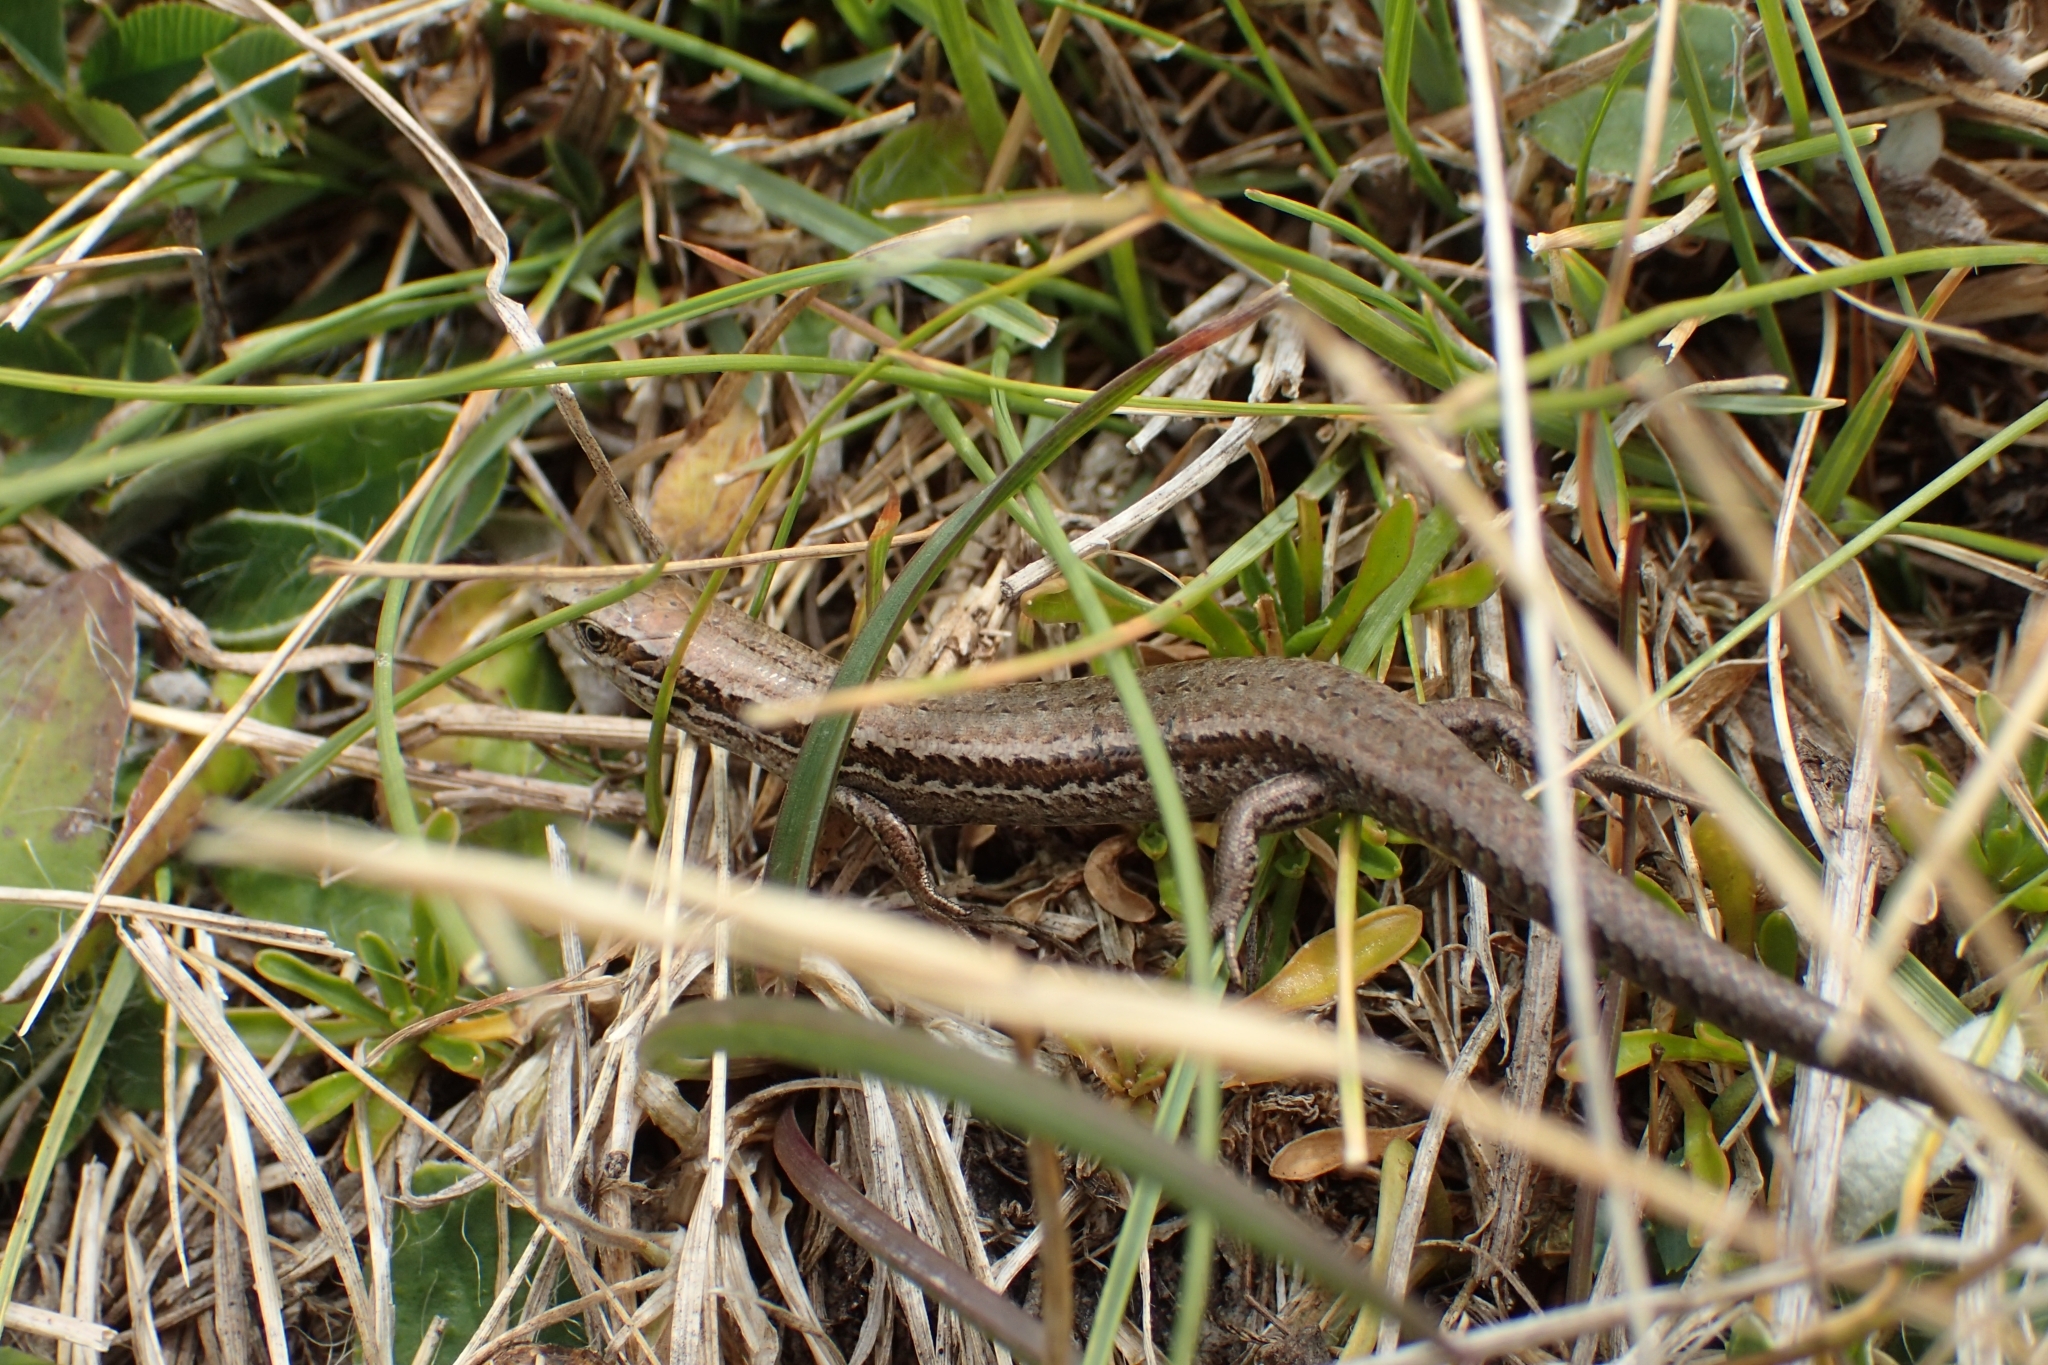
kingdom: Animalia
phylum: Chordata
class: Squamata
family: Scincidae
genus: Oligosoma
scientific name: Oligosoma polychroma
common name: Common new zealand skink
